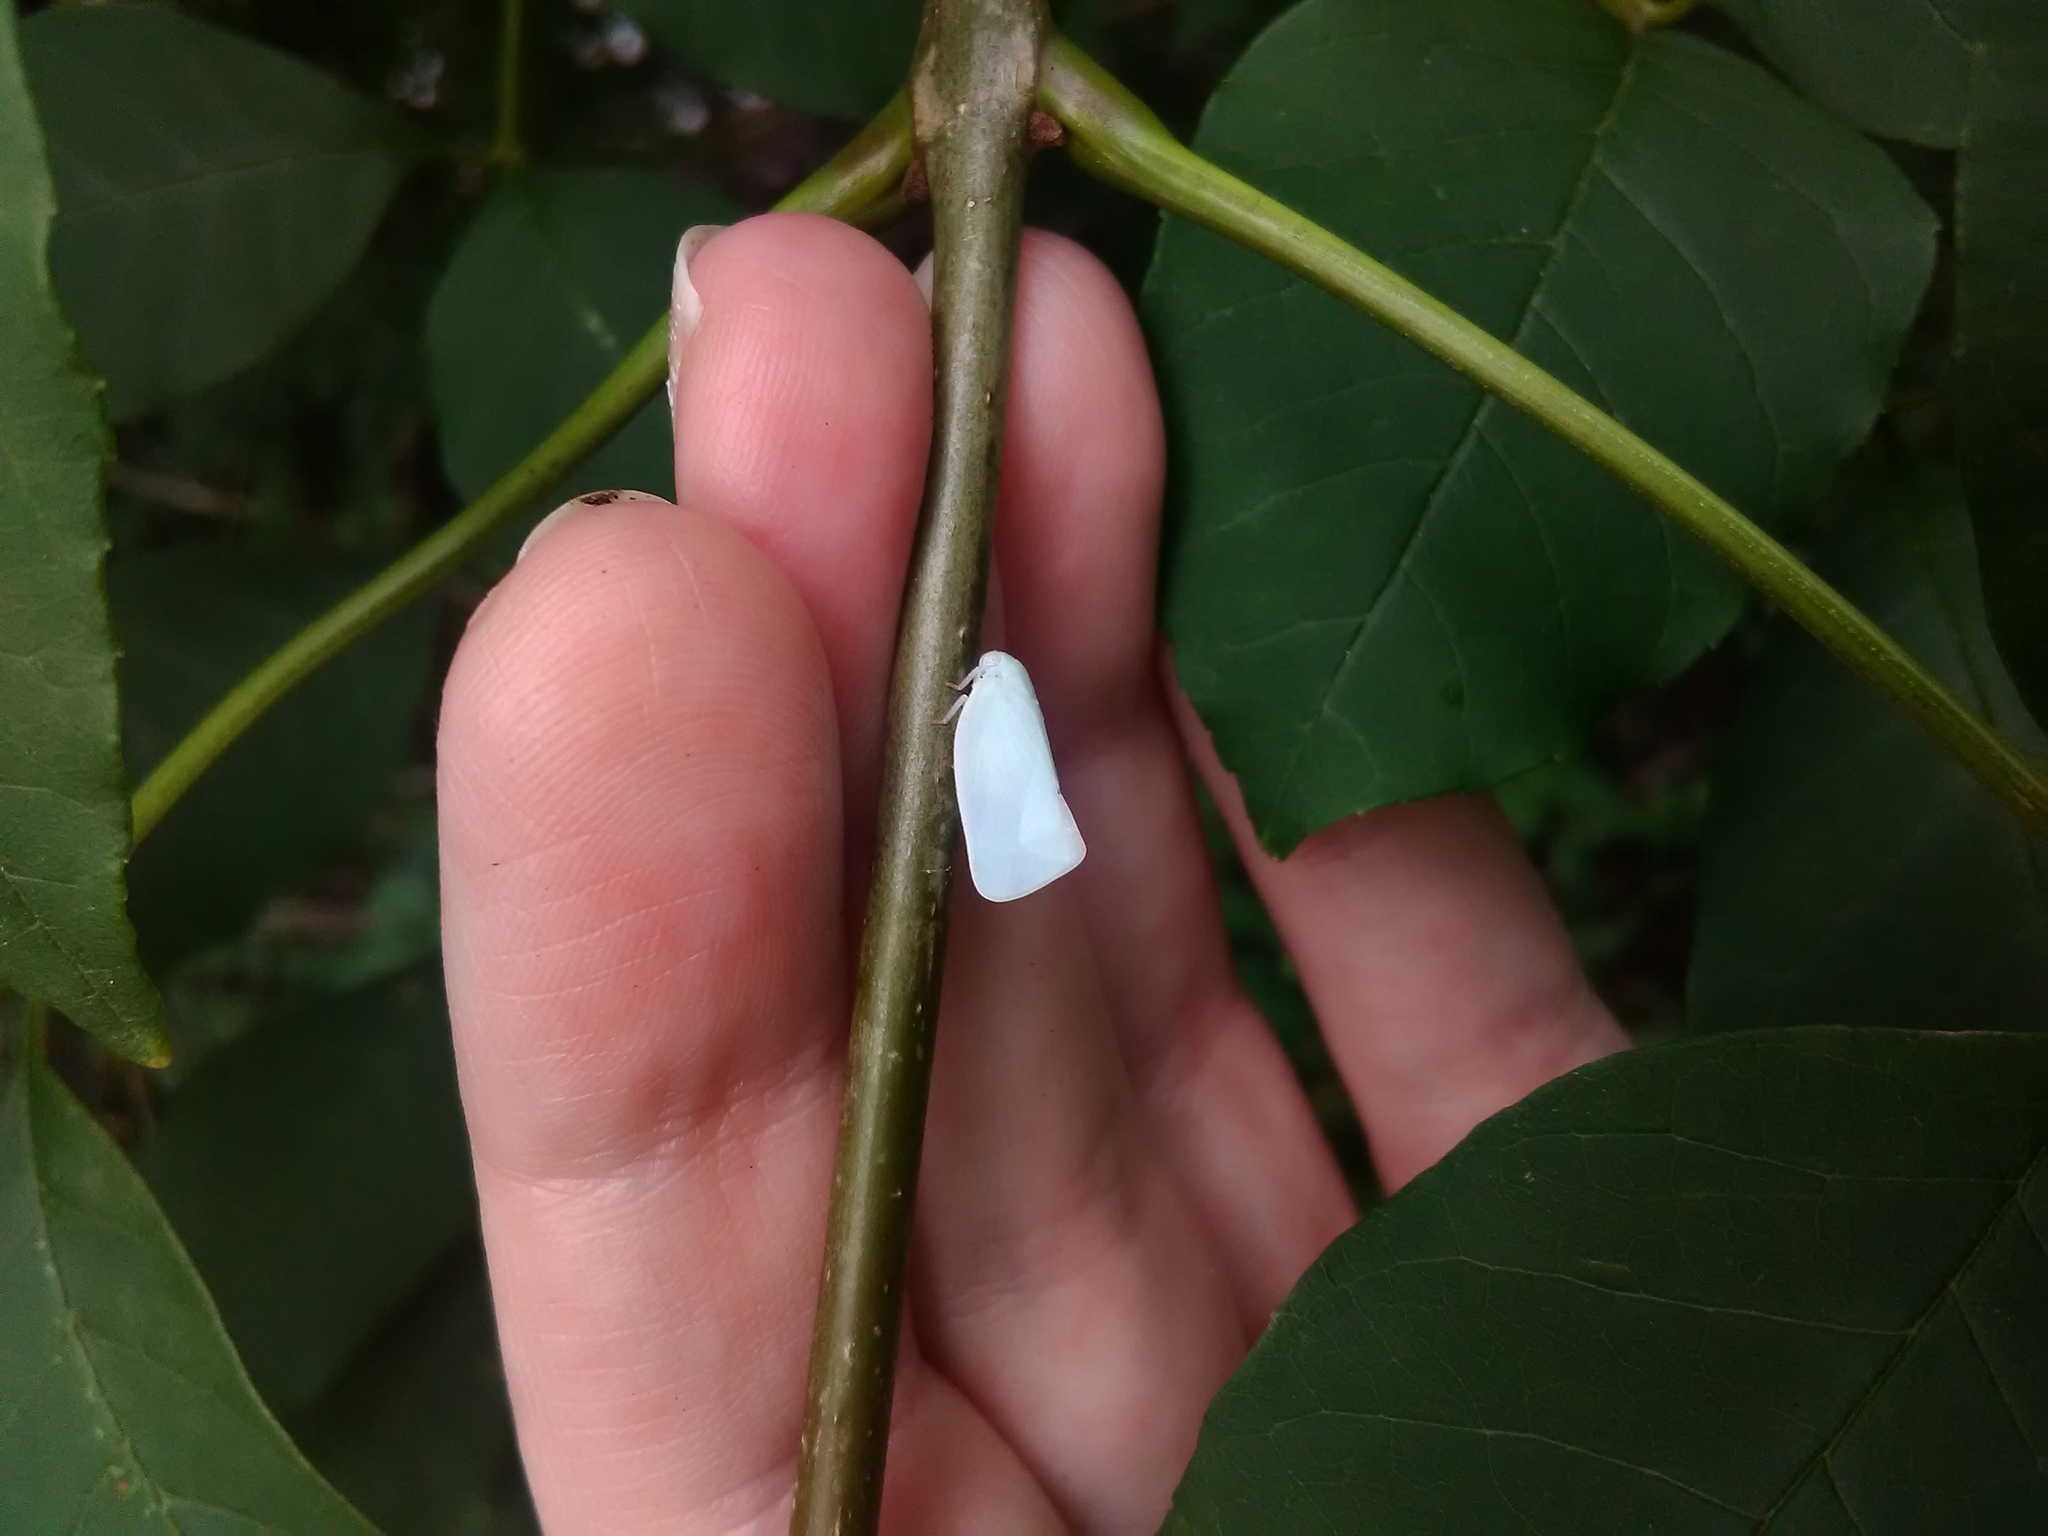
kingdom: Animalia
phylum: Arthropoda
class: Insecta
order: Hemiptera
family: Flatidae
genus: Flatormenis
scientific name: Flatormenis proxima
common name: Northern flatid planthopper
